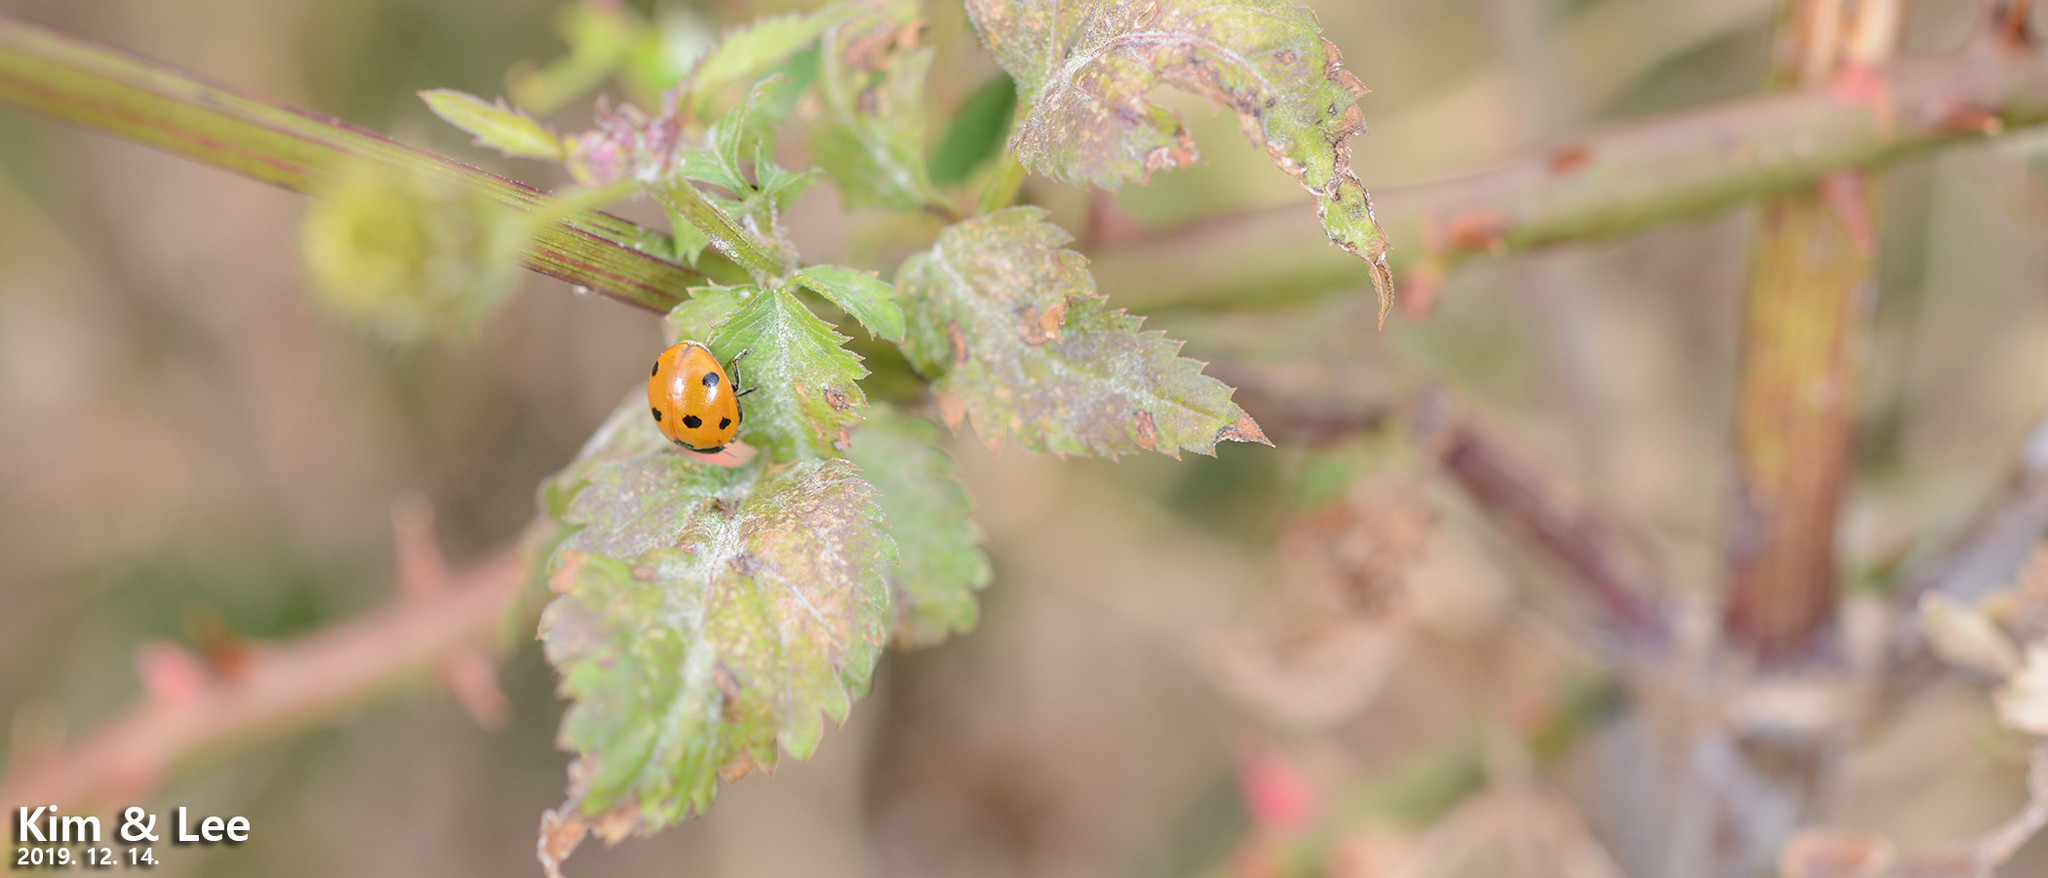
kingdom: Animalia
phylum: Arthropoda
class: Insecta
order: Coleoptera
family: Coccinellidae
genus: Coccinella
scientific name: Coccinella septempunctata
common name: Sevenspotted lady beetle
